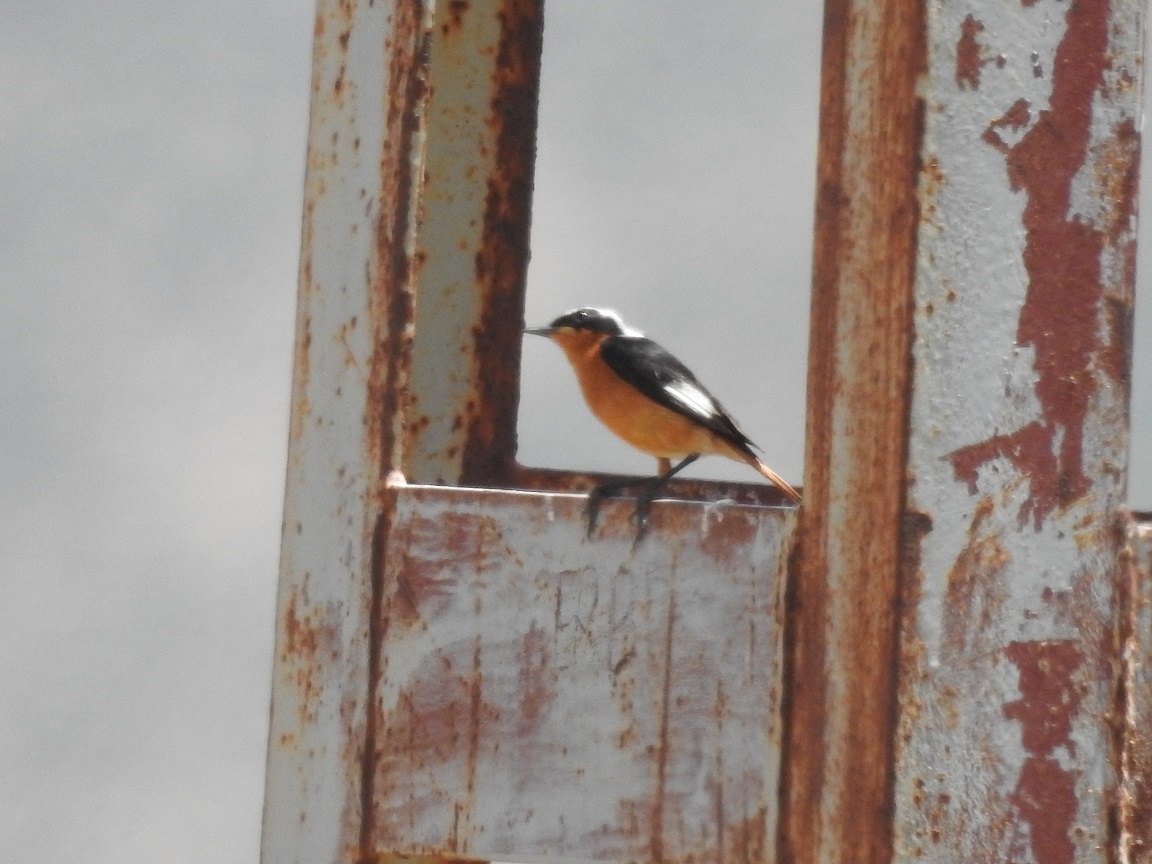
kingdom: Animalia
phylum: Chordata
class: Aves
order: Passeriformes
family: Muscicapidae
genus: Phoenicurus
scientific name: Phoenicurus moussieri
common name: Moussier's redstart
